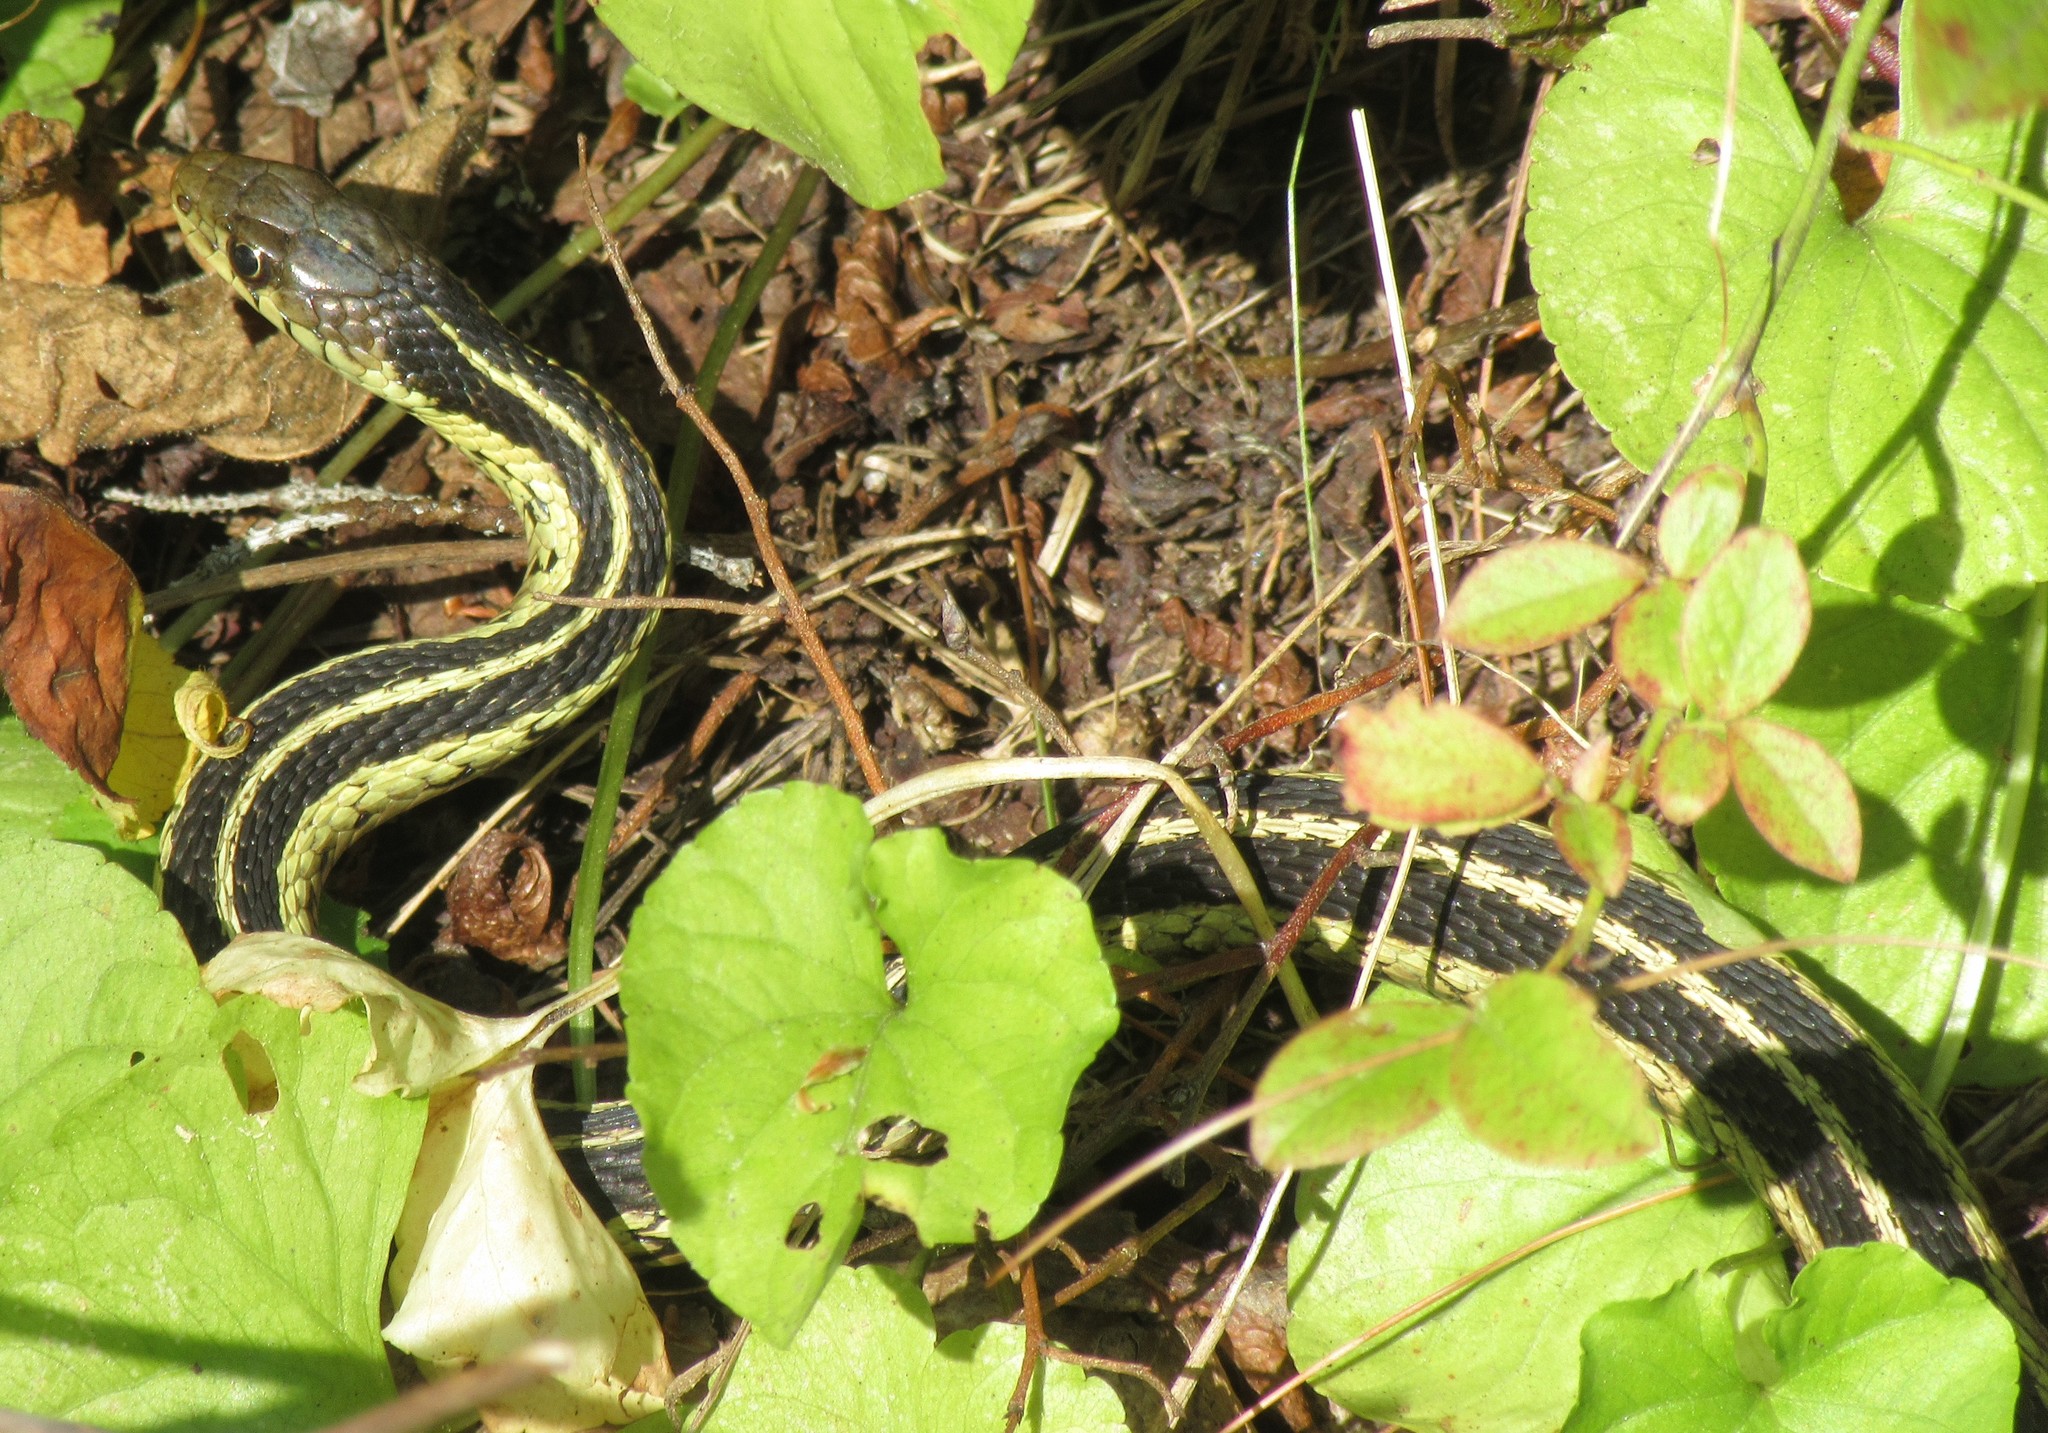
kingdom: Animalia
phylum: Chordata
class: Squamata
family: Colubridae
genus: Thamnophis
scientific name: Thamnophis sirtalis
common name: Common garter snake
